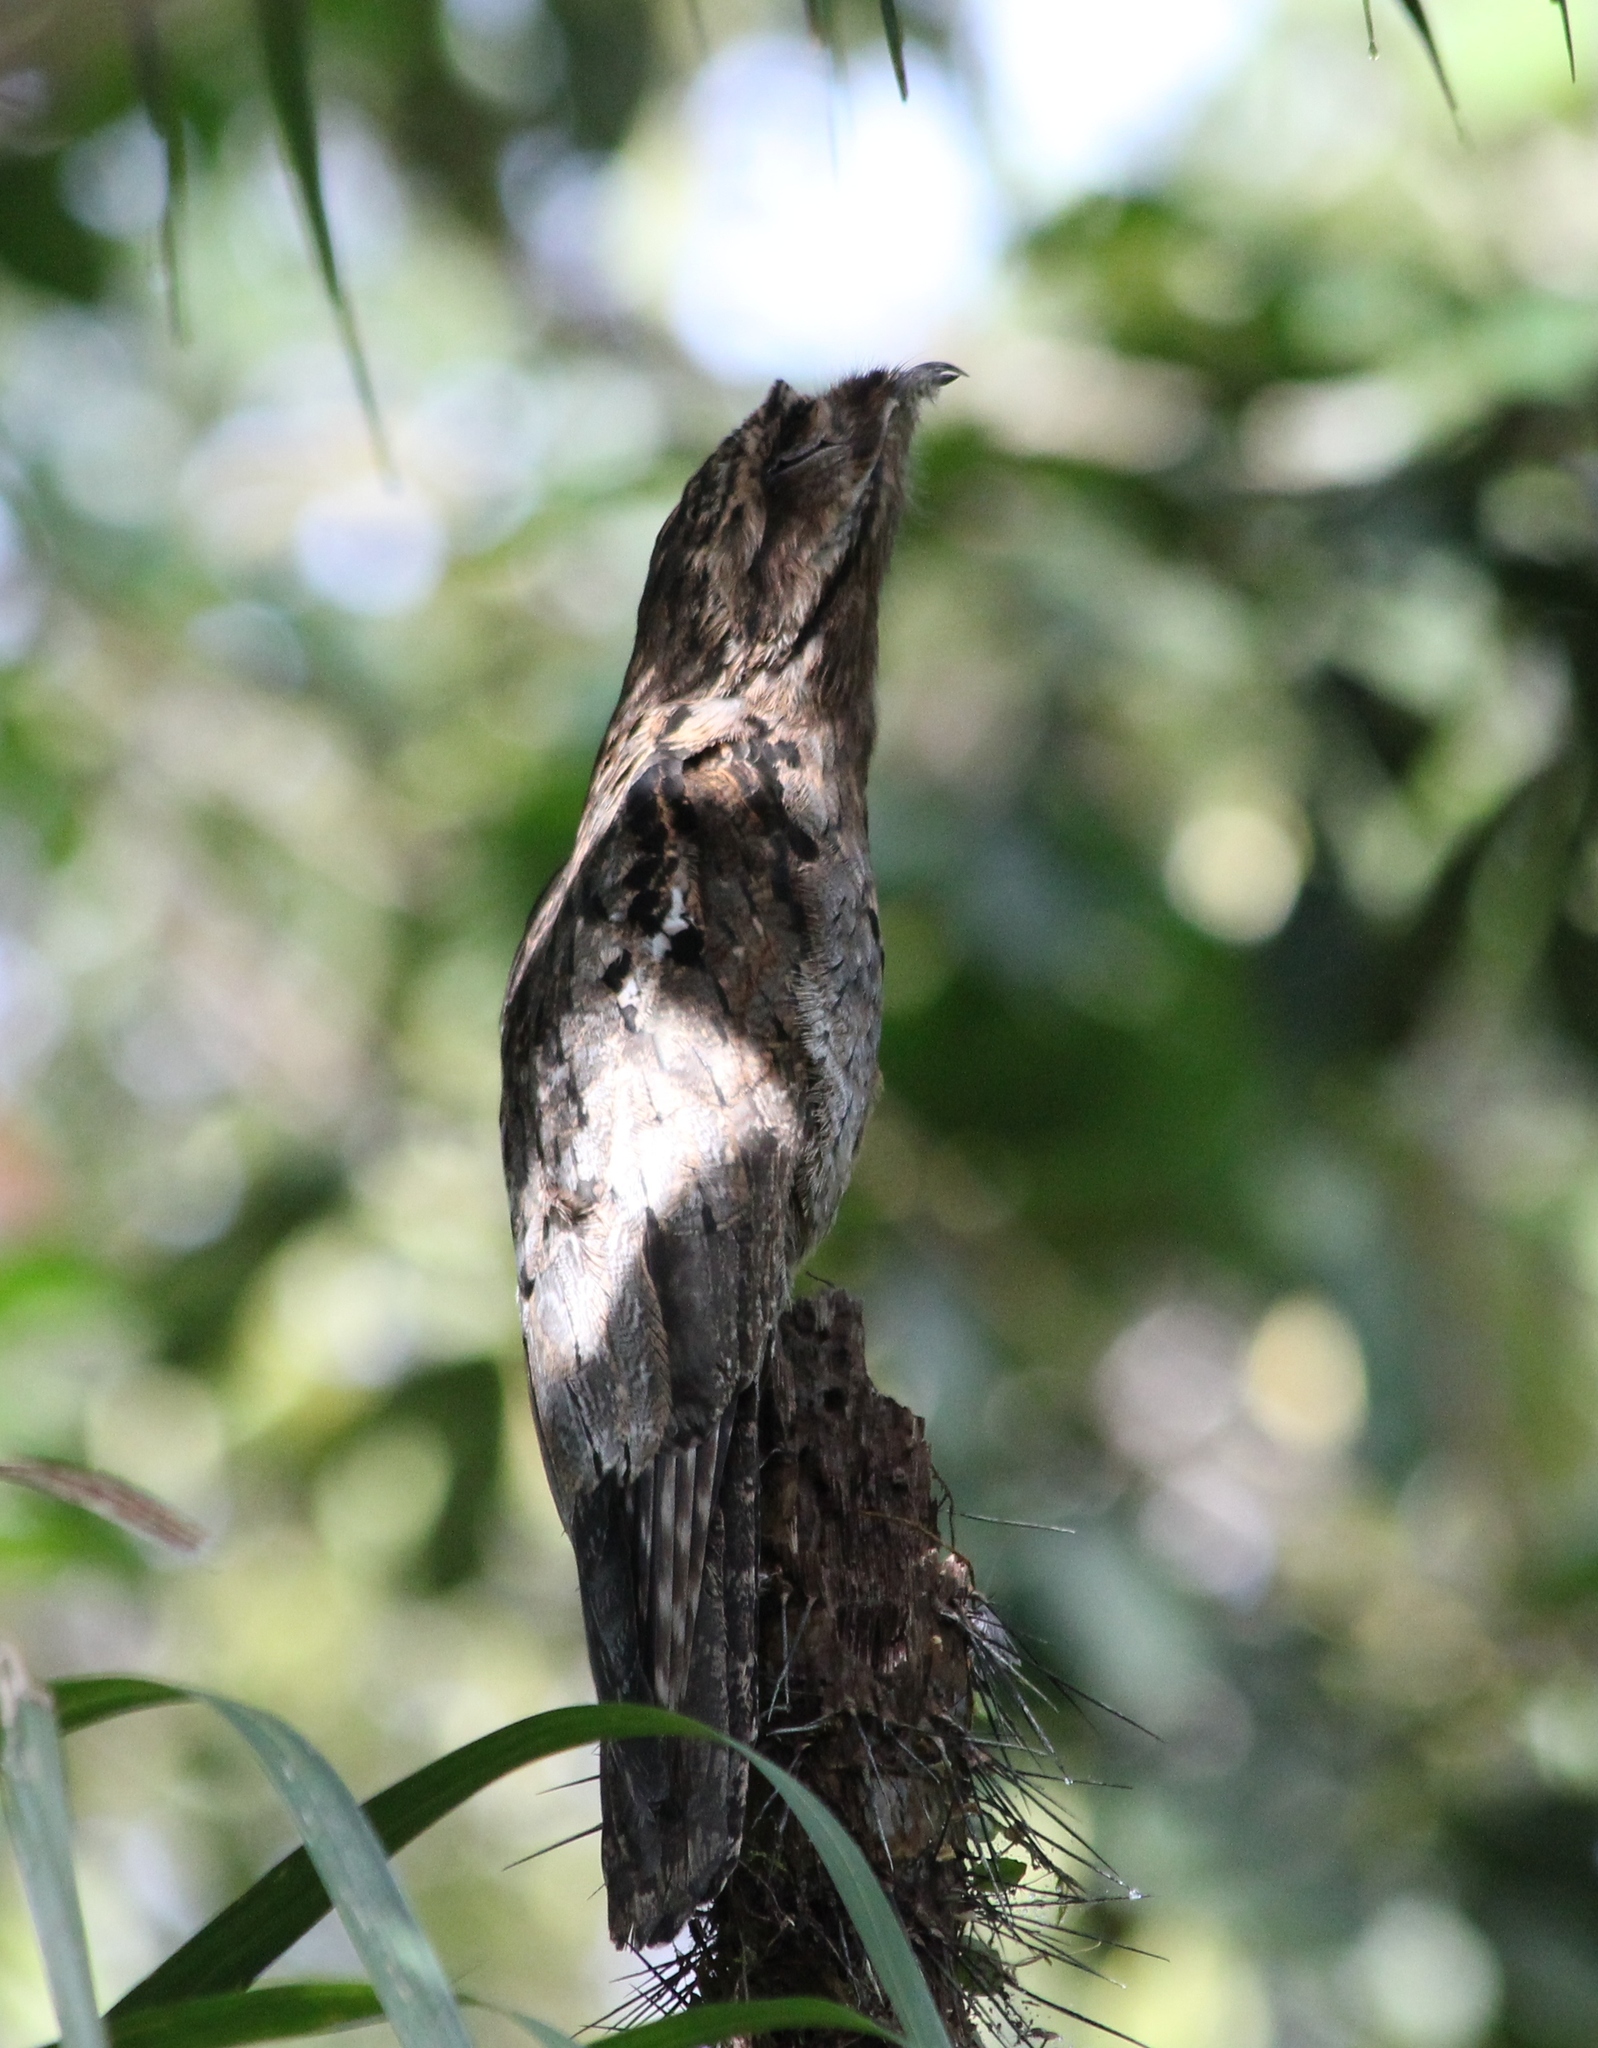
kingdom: Animalia
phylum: Chordata
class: Aves
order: Nyctibiiformes
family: Nyctibiidae
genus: Nyctibius
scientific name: Nyctibius griseus
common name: Common potoo
